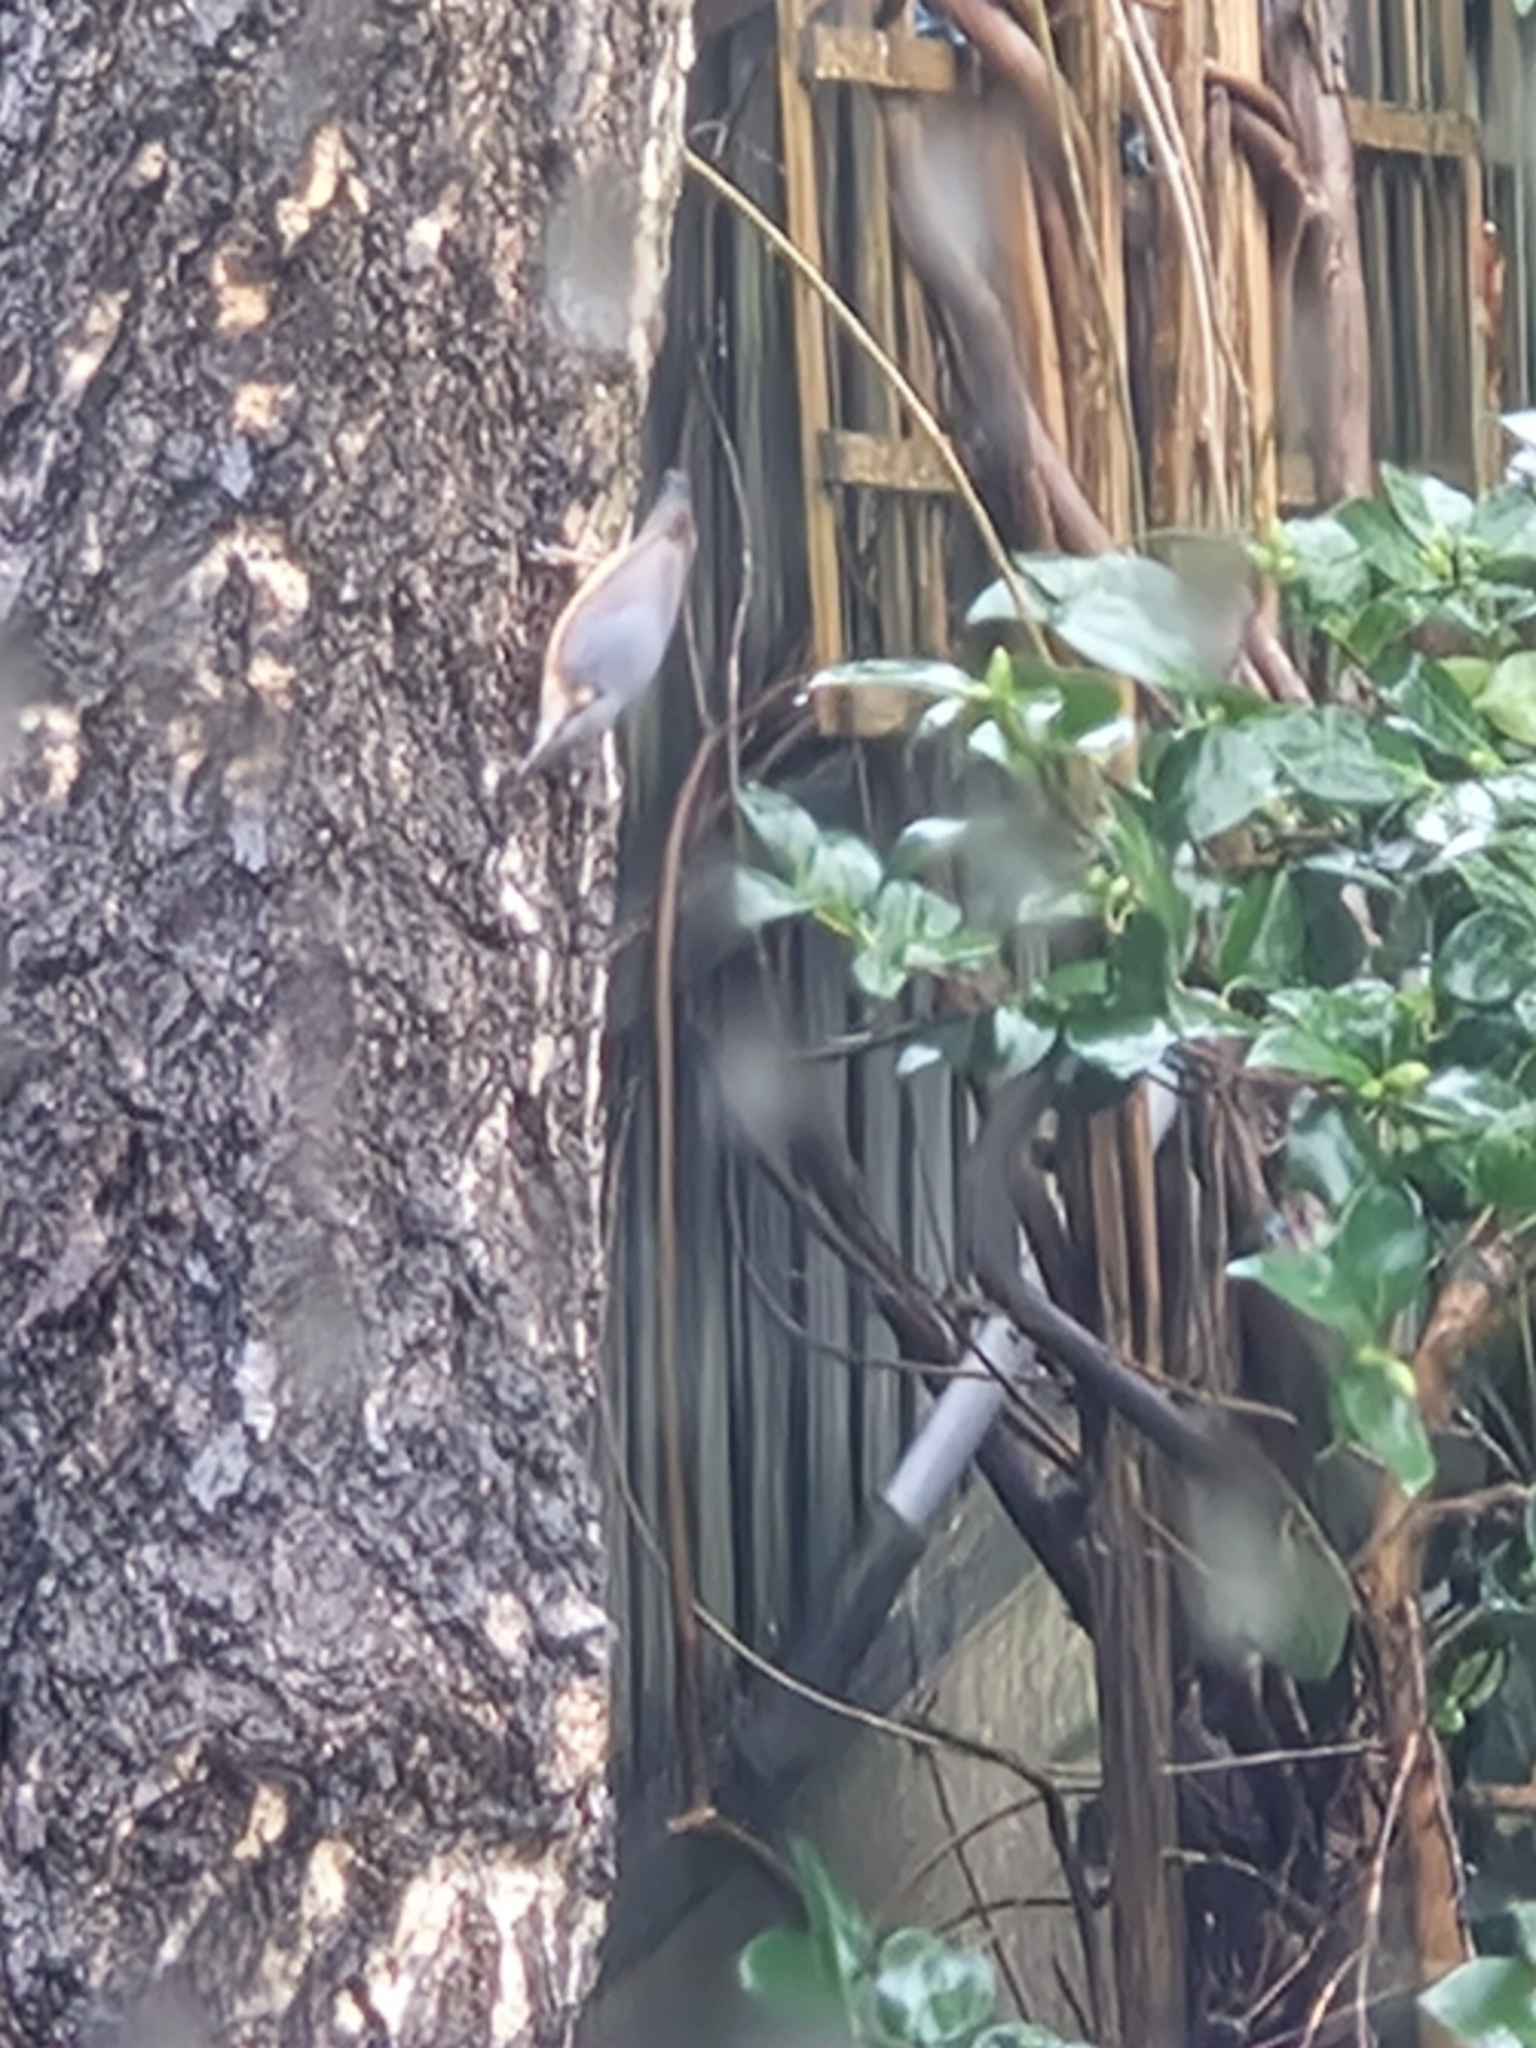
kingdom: Animalia
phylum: Chordata
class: Aves
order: Passeriformes
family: Sittidae
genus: Sitta
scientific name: Sitta europaea
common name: Eurasian nuthatch
